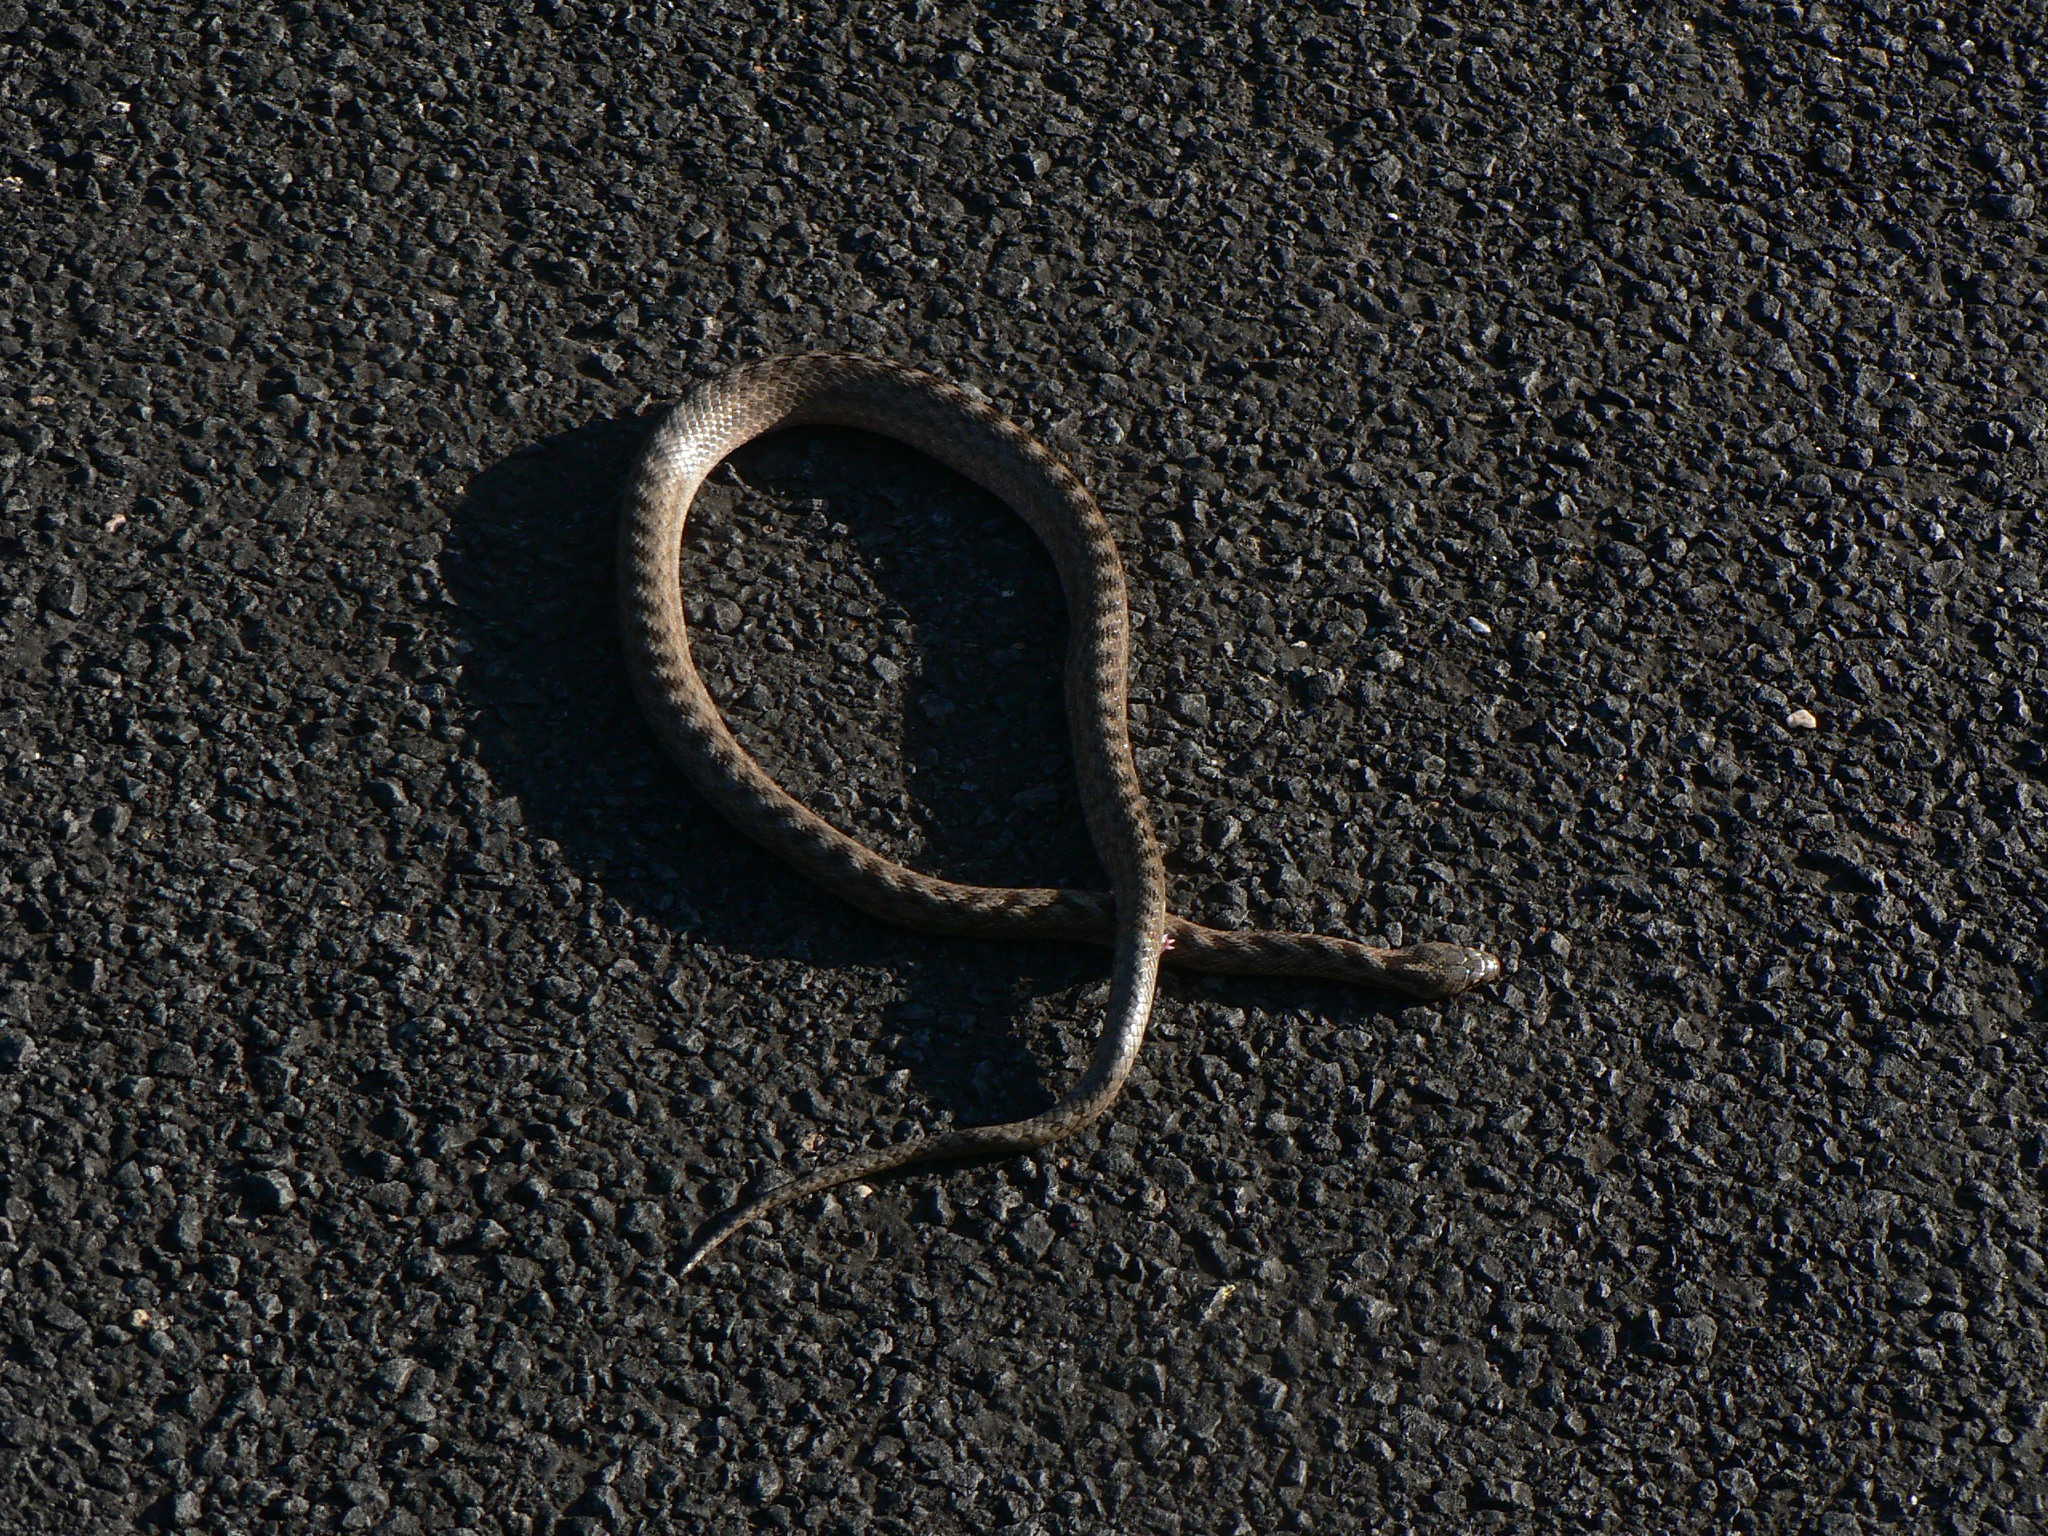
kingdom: Animalia
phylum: Chordata
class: Squamata
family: Colubridae
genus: Coronella
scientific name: Coronella girondica
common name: Southern smooth snake
